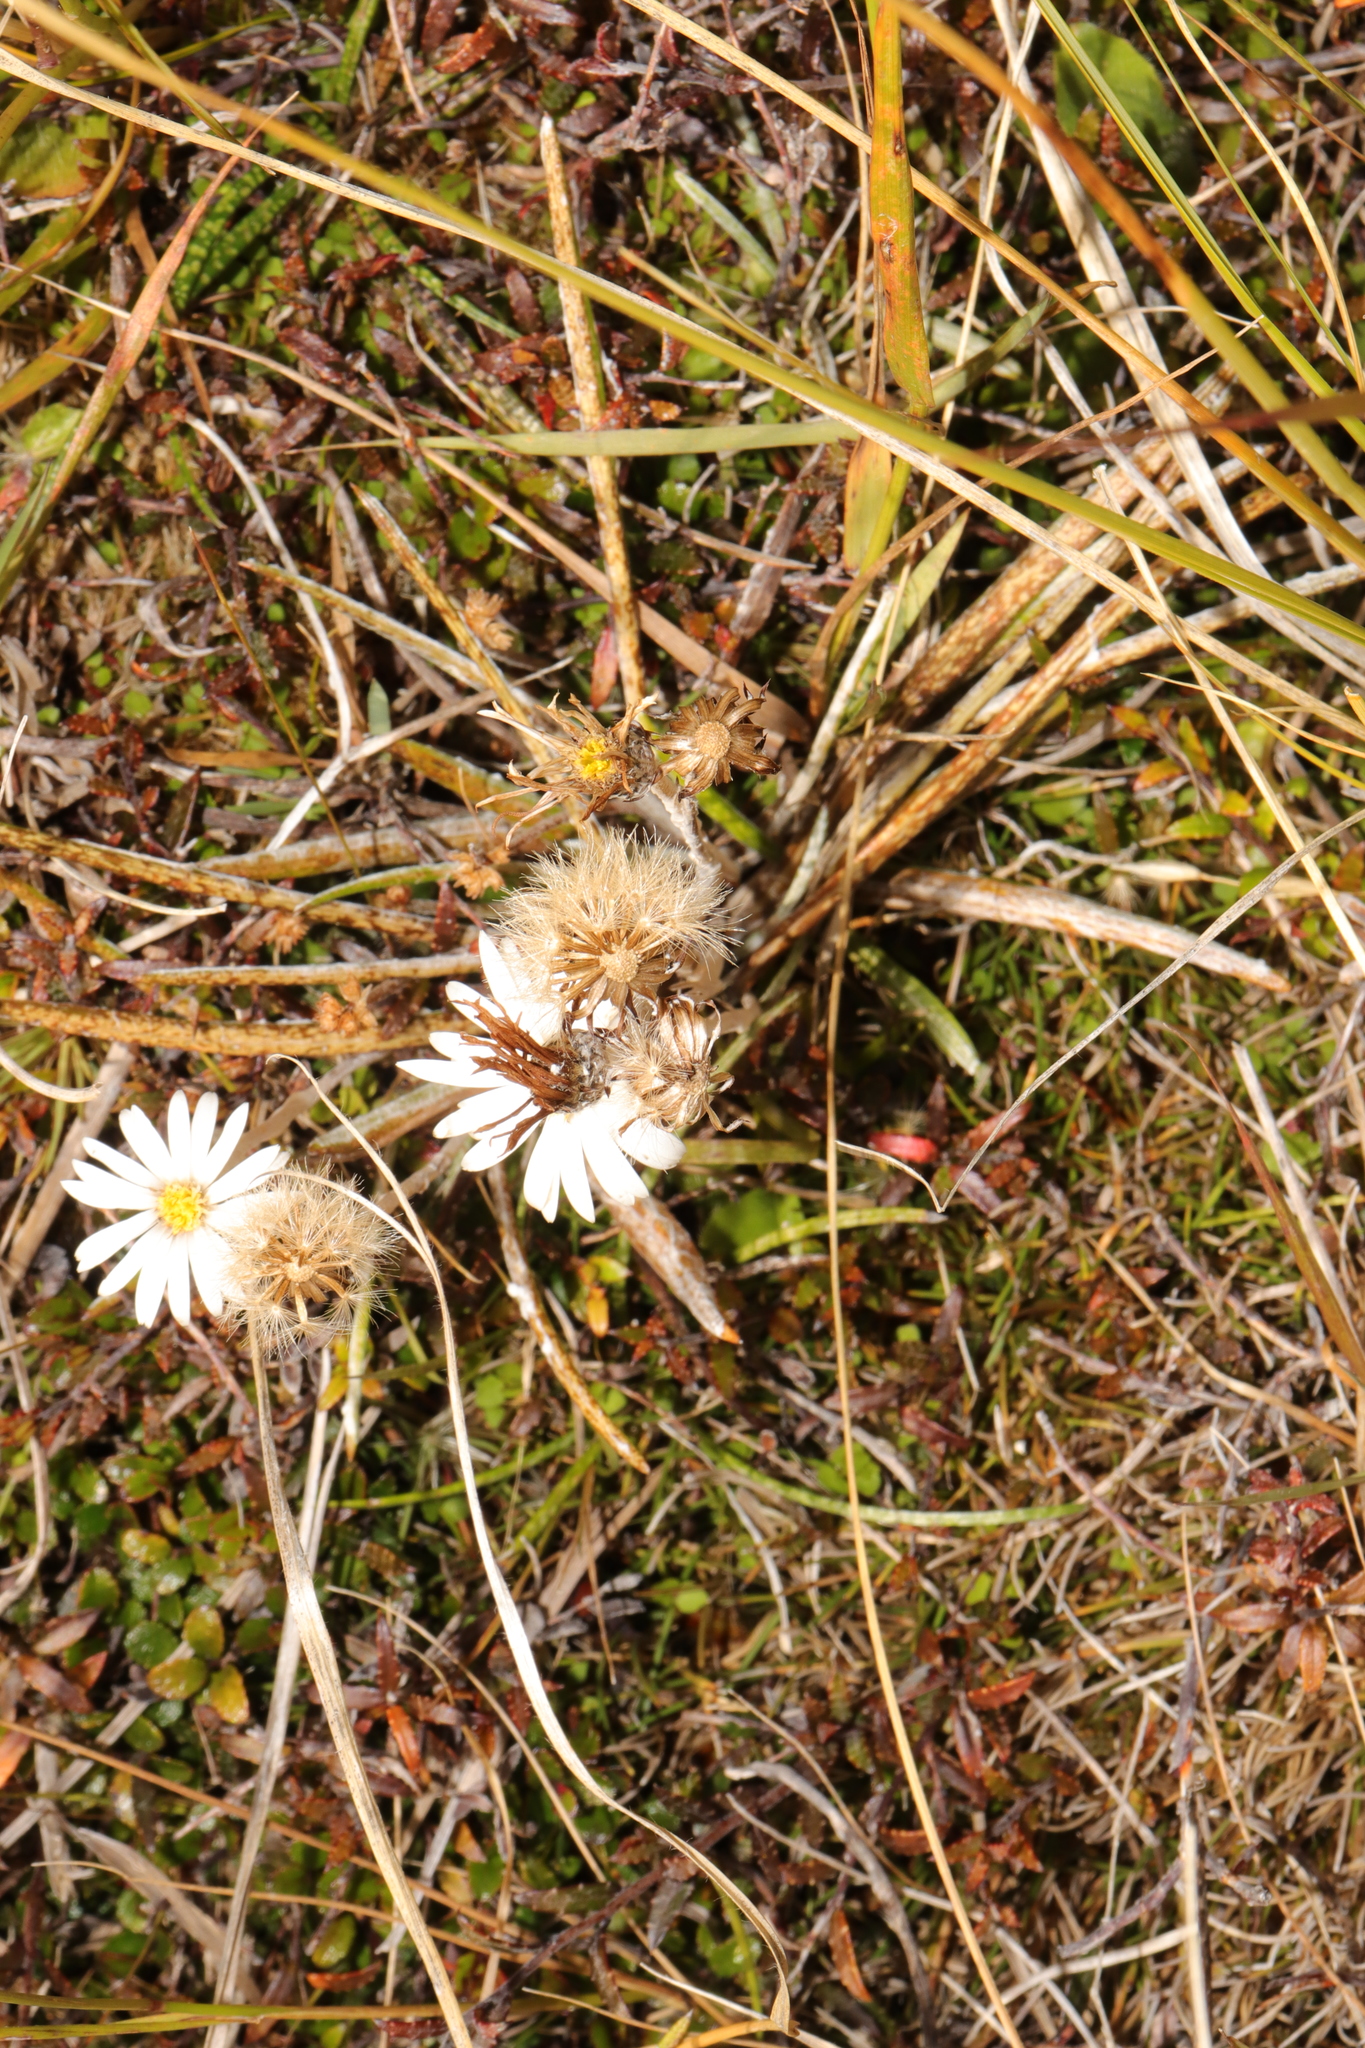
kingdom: Plantae
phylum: Tracheophyta
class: Magnoliopsida
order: Asterales
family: Asteraceae
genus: Celmisia
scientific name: Celmisia gracilenta
